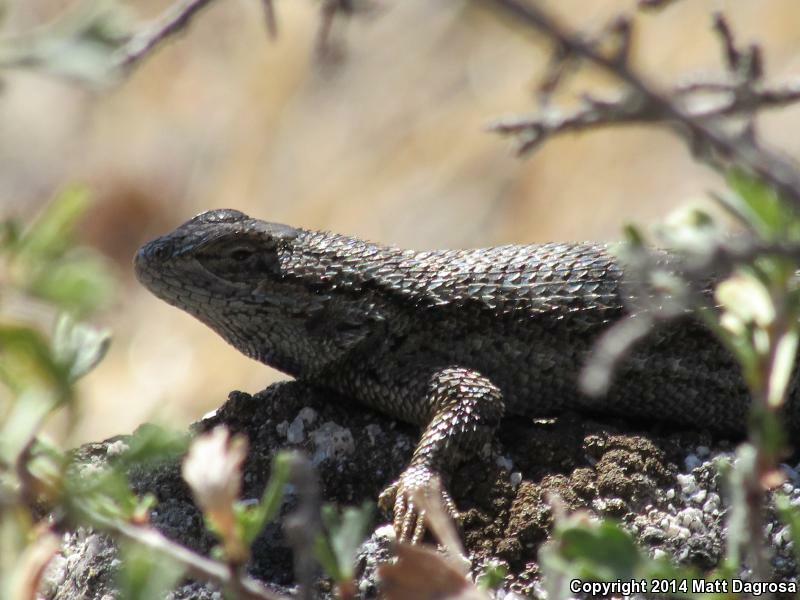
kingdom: Animalia
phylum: Chordata
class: Squamata
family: Phrynosomatidae
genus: Sceloporus
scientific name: Sceloporus occidentalis
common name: Western fence lizard
